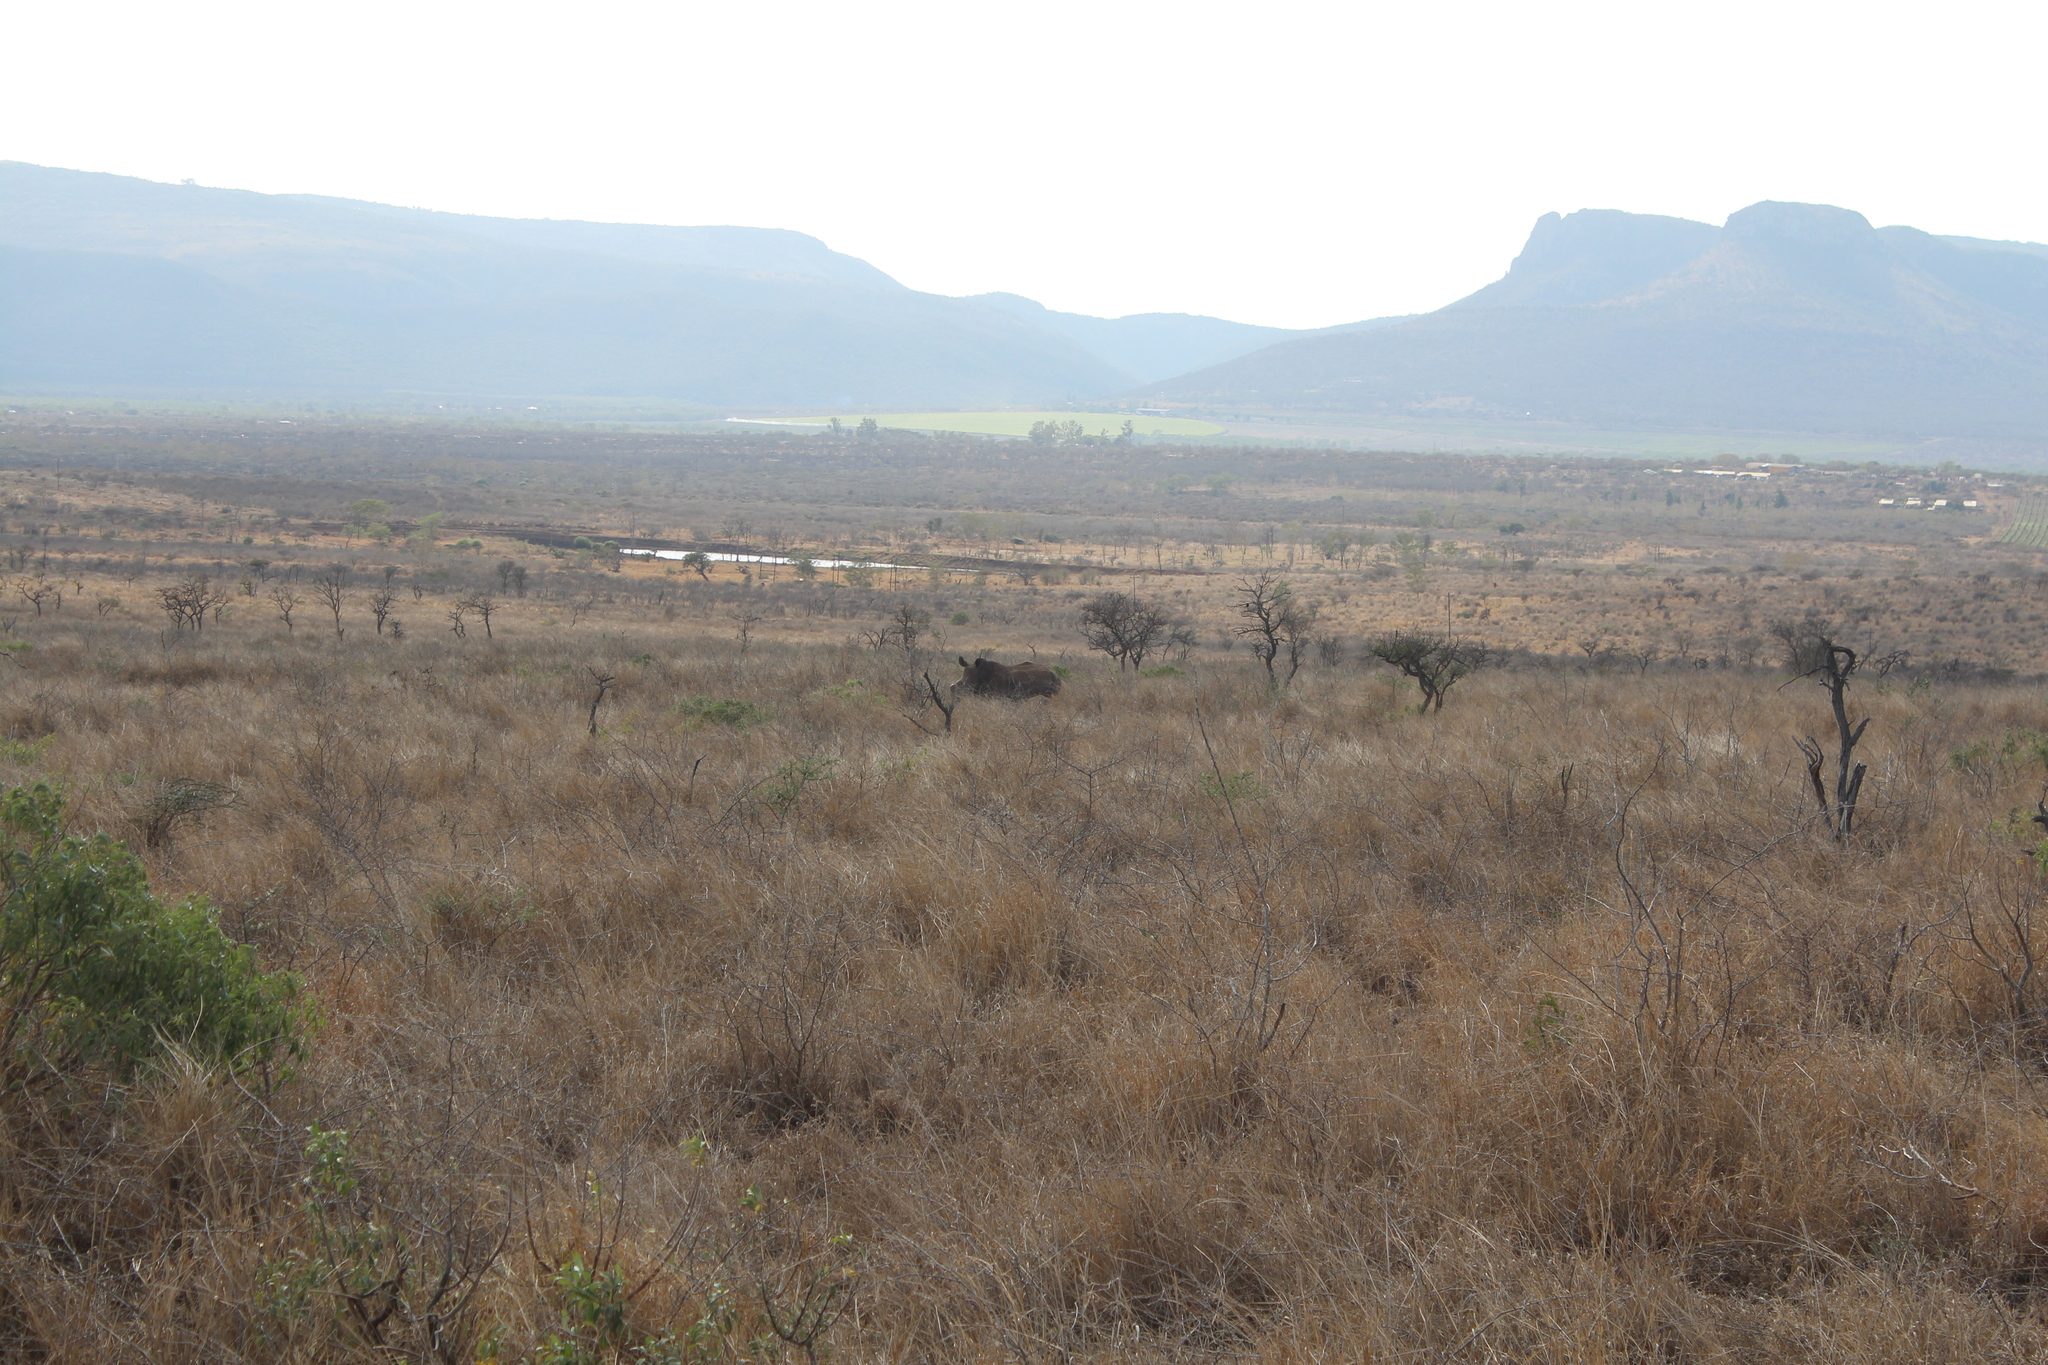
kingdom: Animalia
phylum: Chordata
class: Mammalia
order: Perissodactyla
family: Rhinocerotidae
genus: Ceratotherium
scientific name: Ceratotherium simum
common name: White rhinoceros
